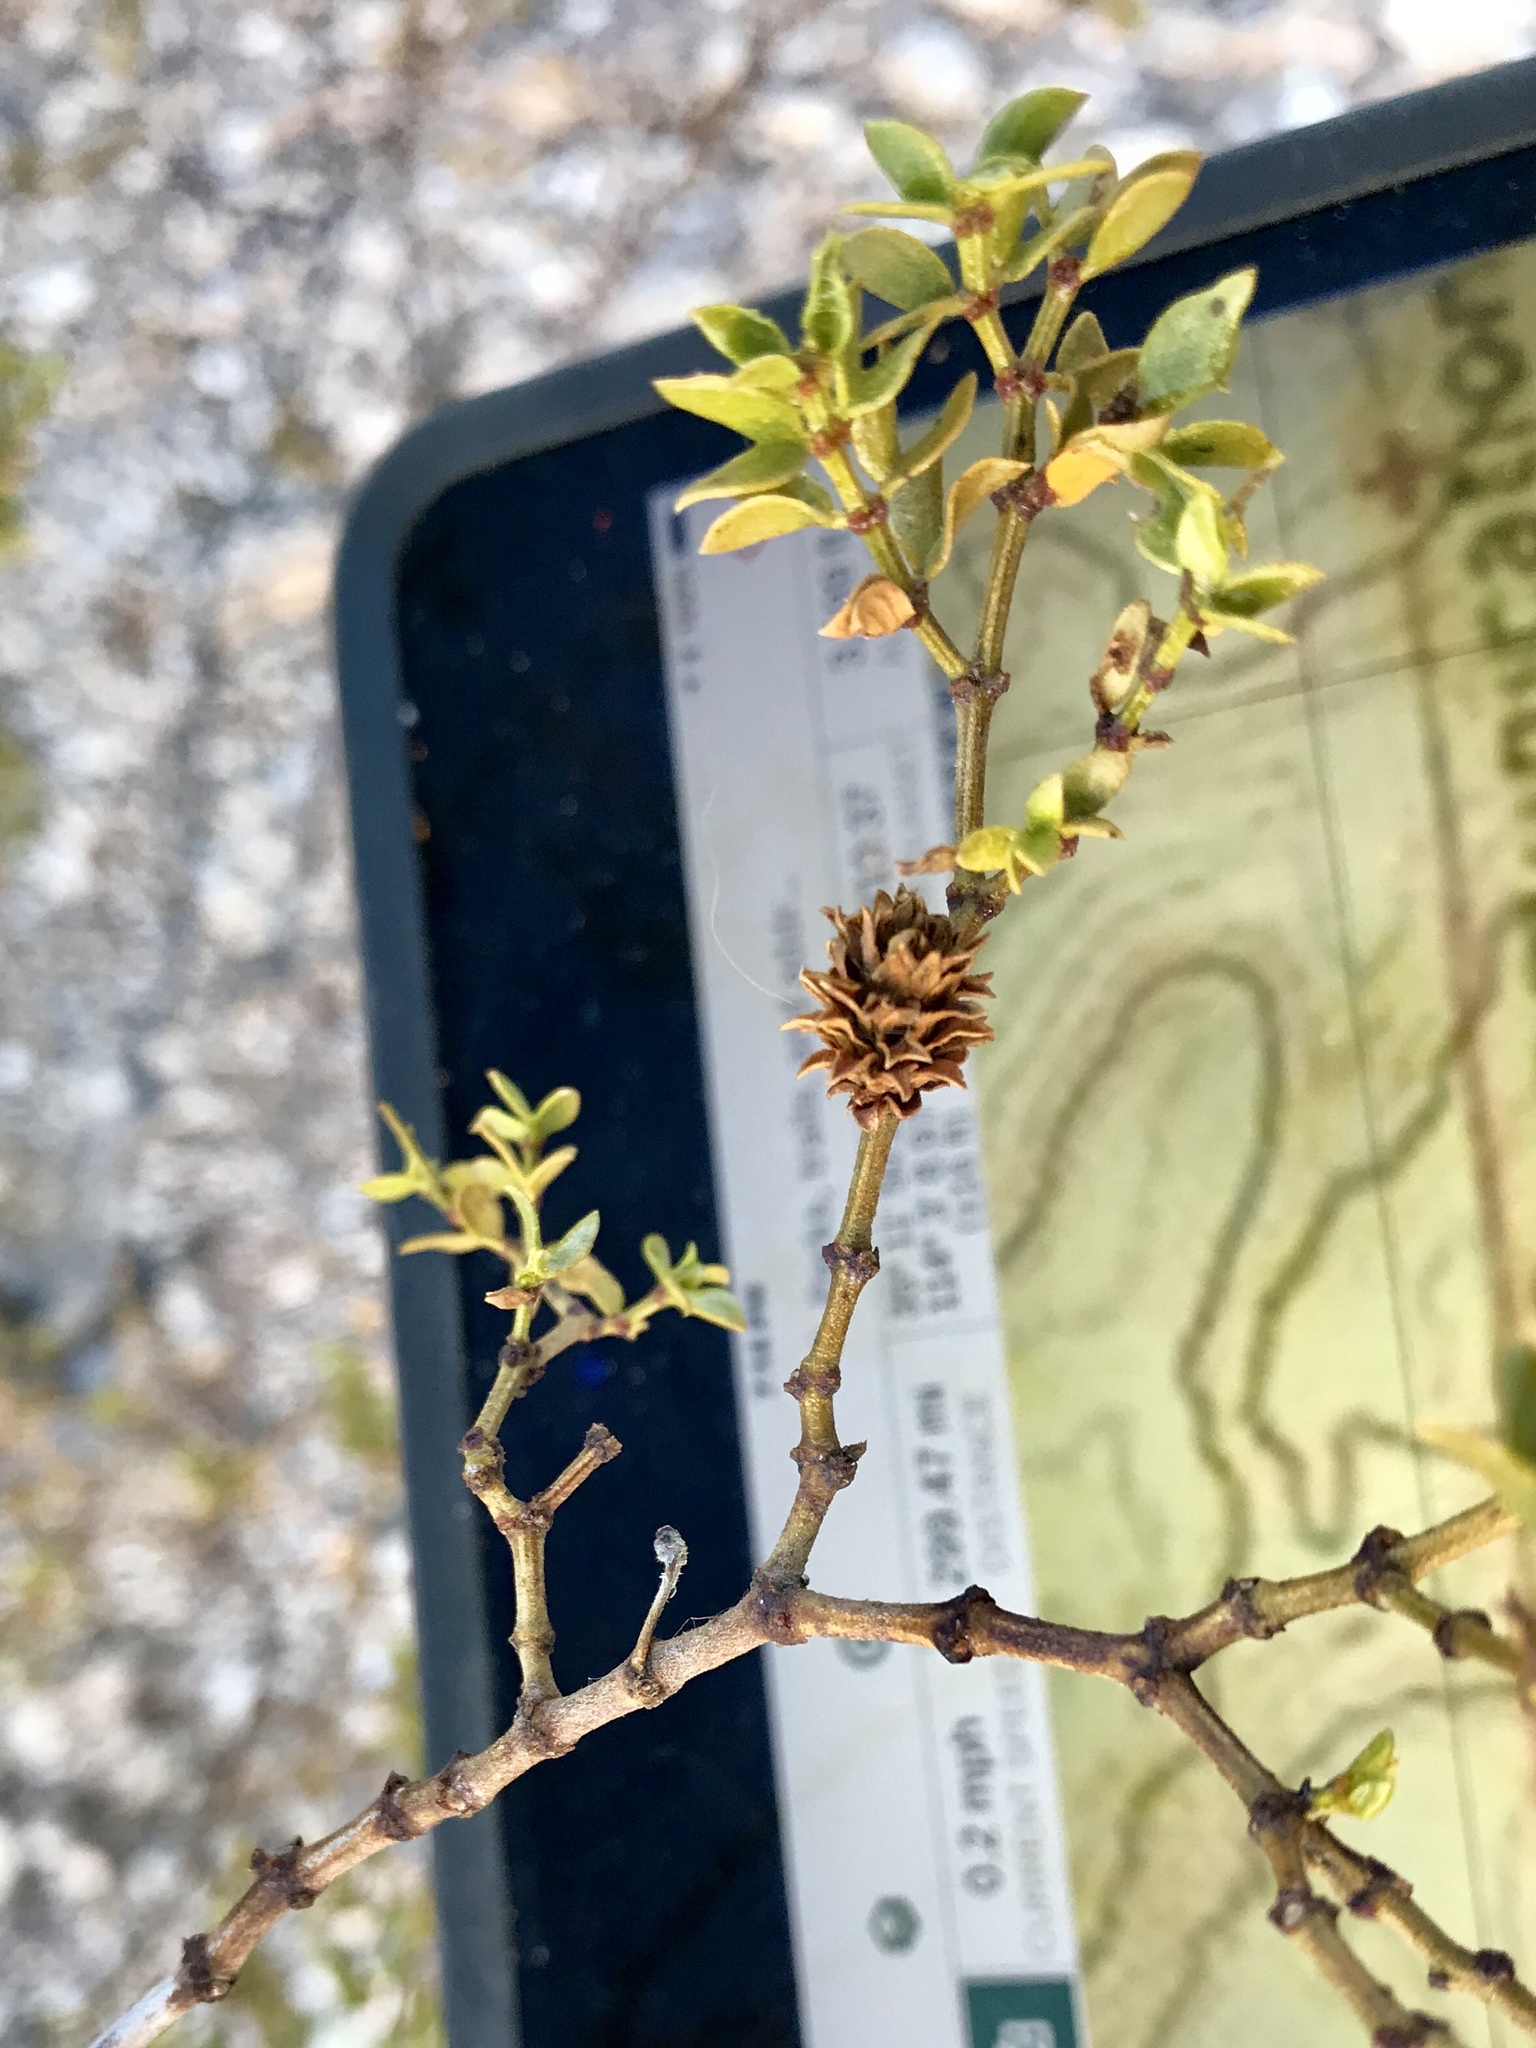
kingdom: Animalia
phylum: Arthropoda
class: Insecta
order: Diptera
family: Cecidomyiidae
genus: Asphondylia
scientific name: Asphondylia rosetta
